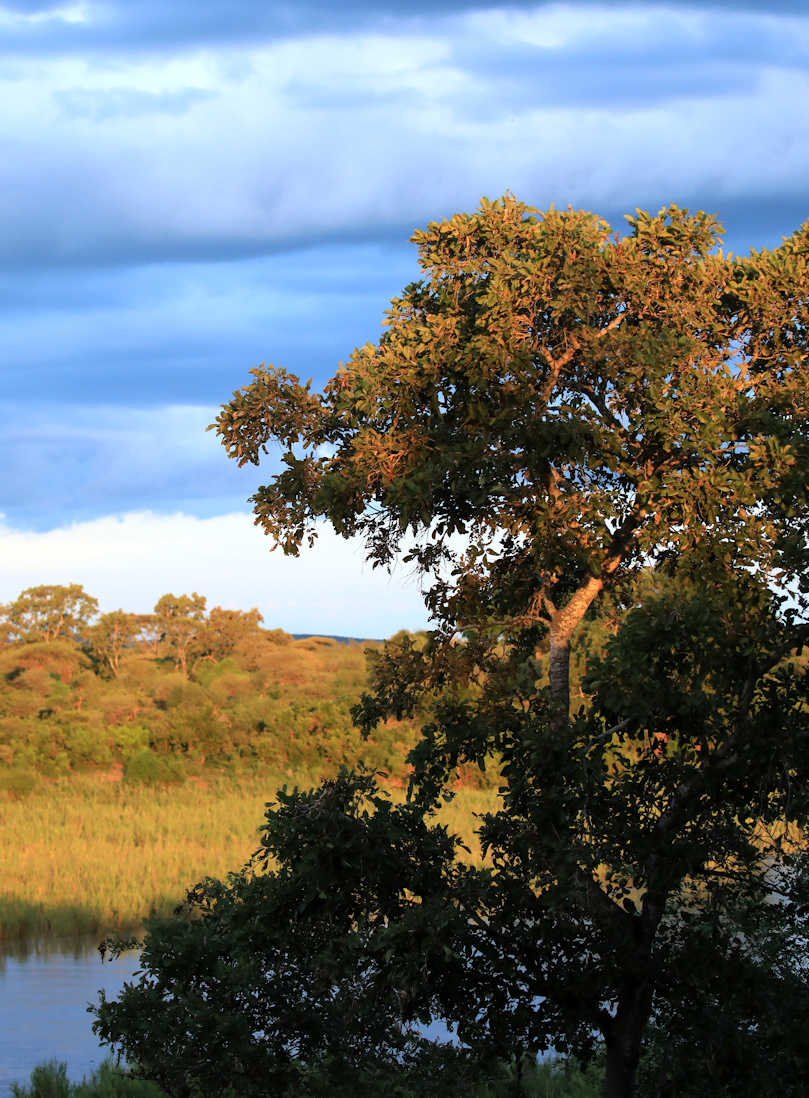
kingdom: Plantae
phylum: Tracheophyta
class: Magnoliopsida
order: Fabales
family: Fabaceae
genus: Philenoptera
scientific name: Philenoptera violacea
